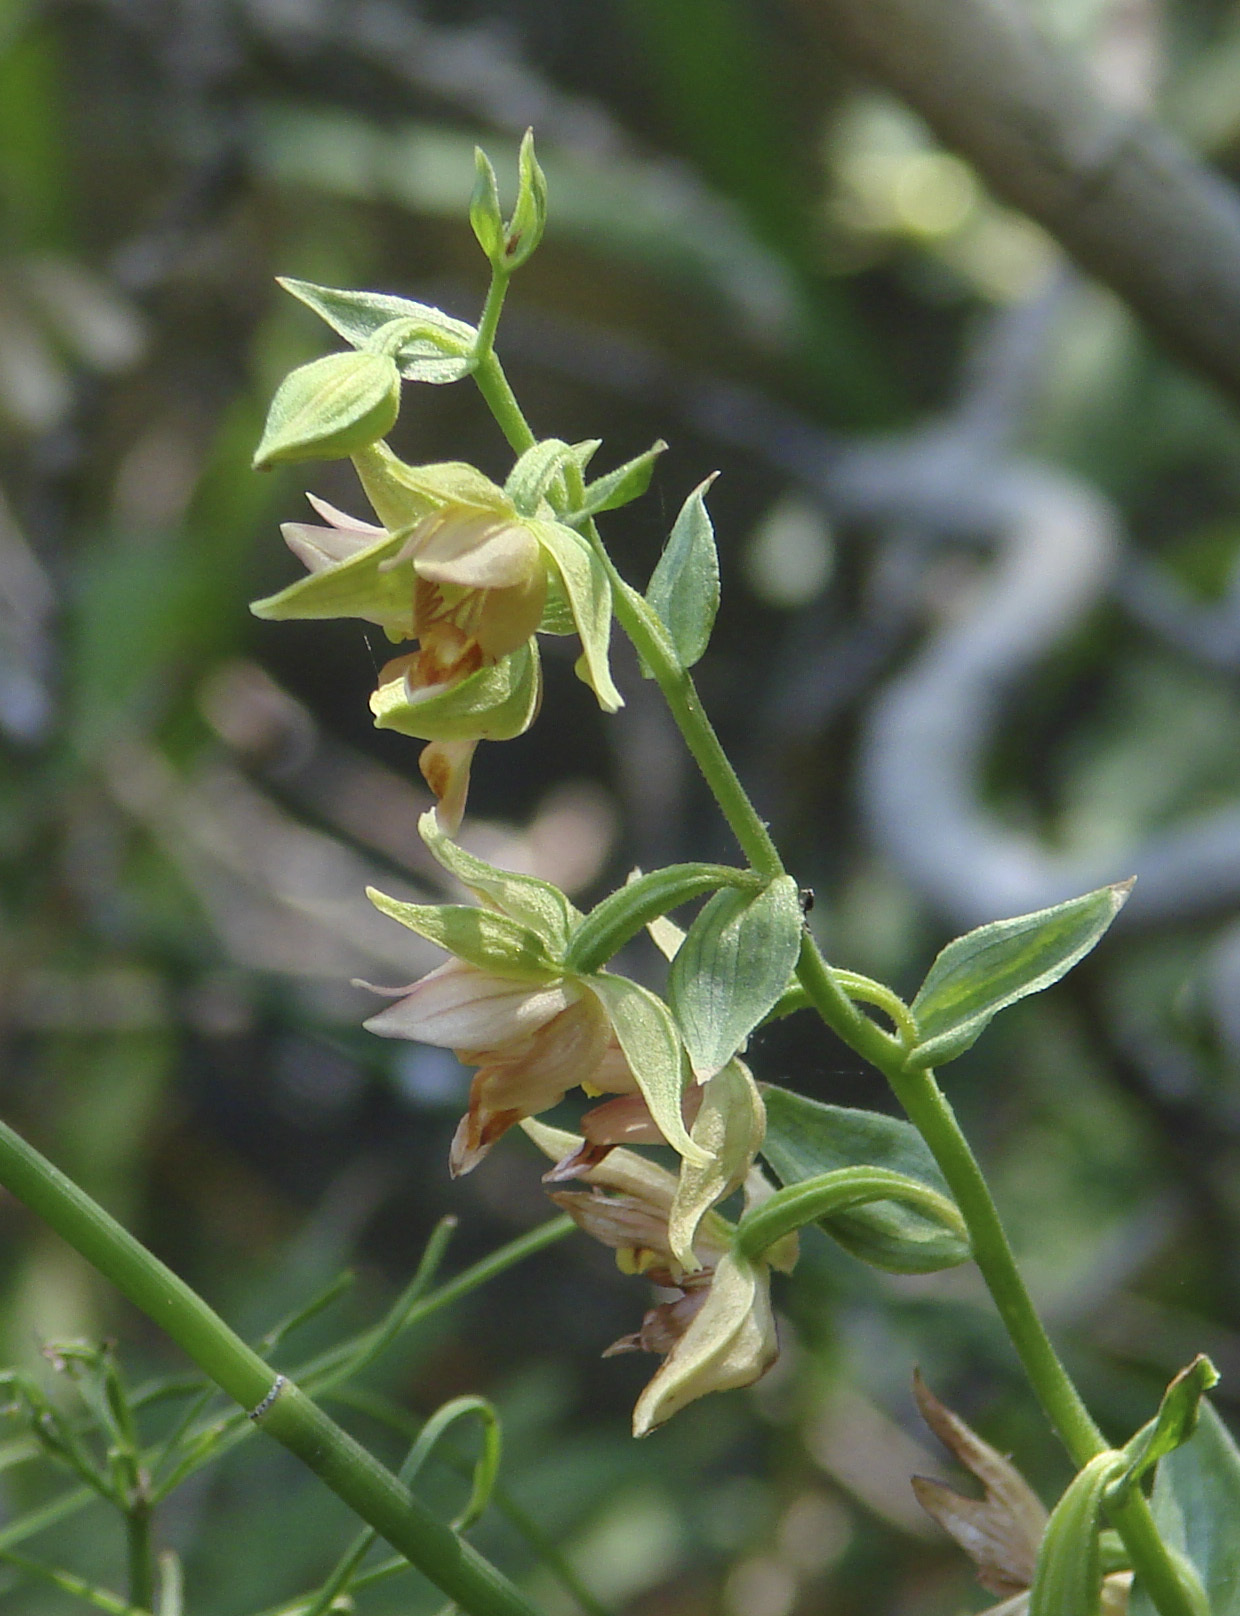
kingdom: Plantae
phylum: Tracheophyta
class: Liliopsida
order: Asparagales
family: Orchidaceae
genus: Epipactis
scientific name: Epipactis gigantea
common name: Chatterbox
